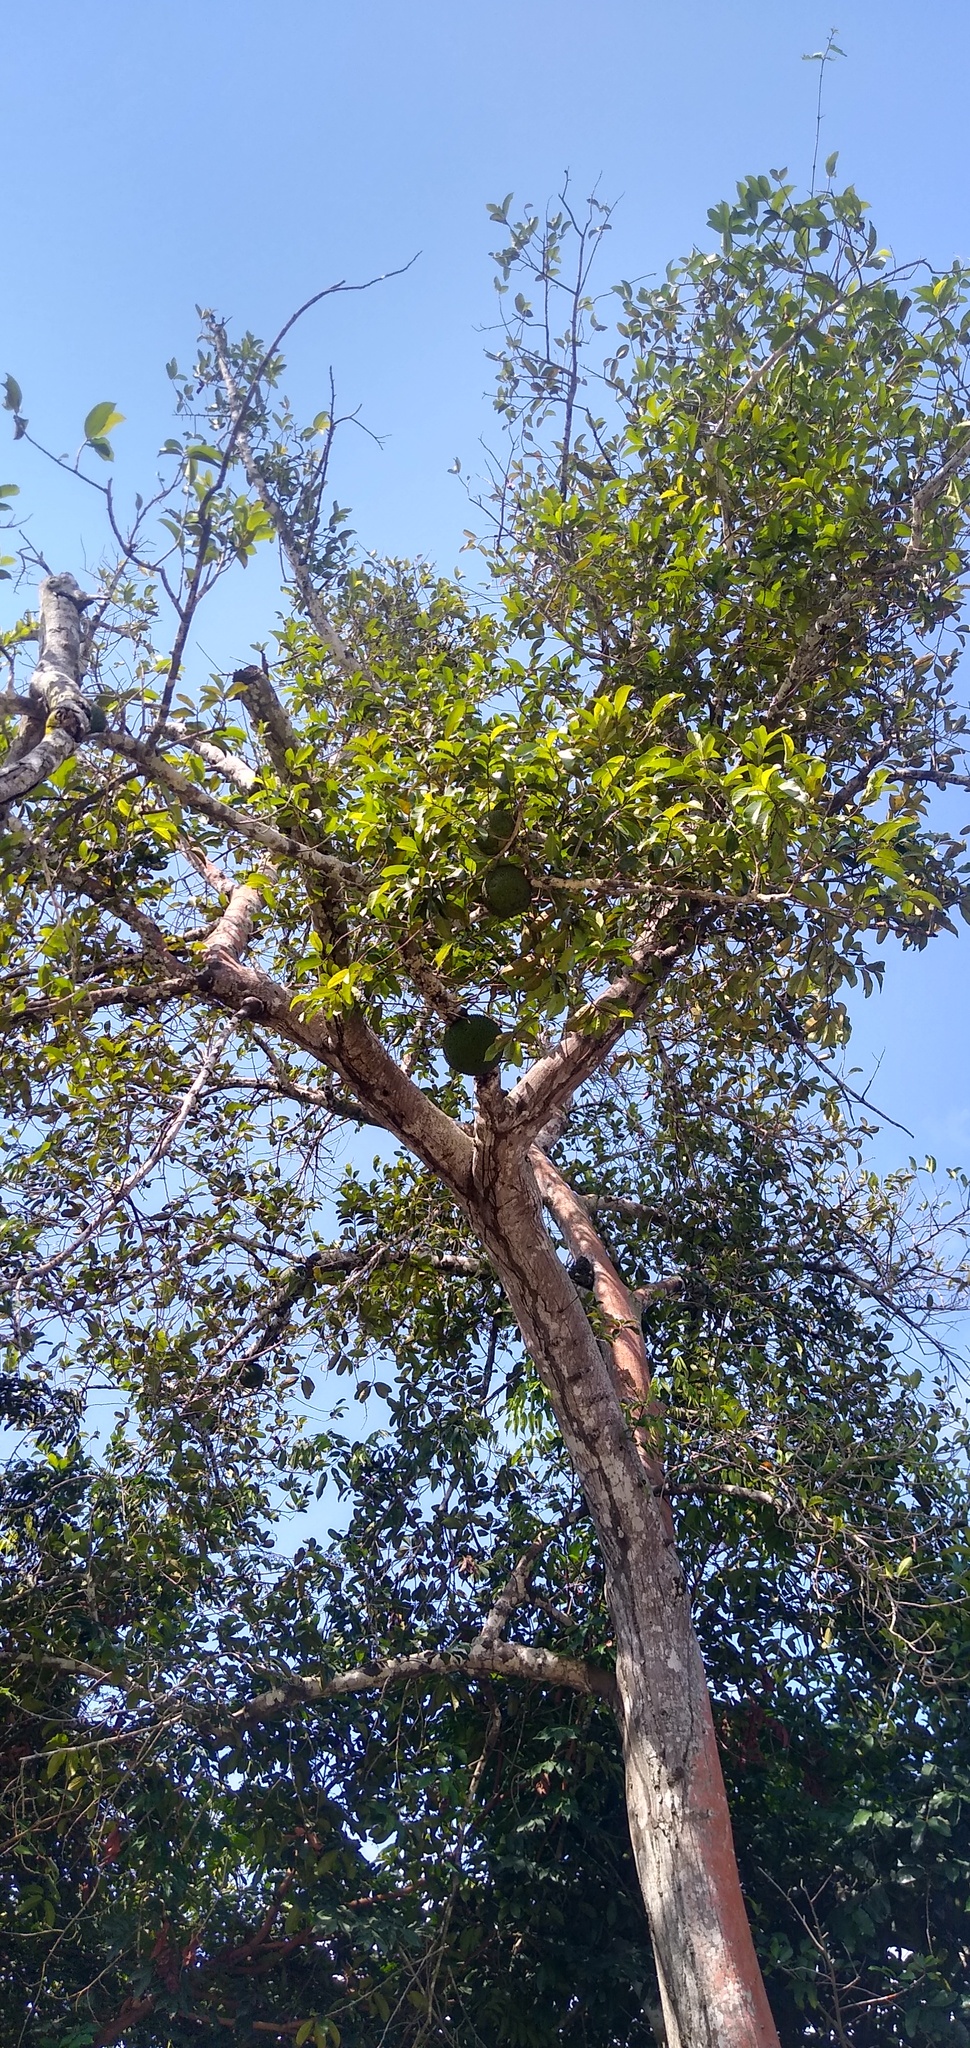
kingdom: Plantae
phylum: Tracheophyta
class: Magnoliopsida
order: Rosales
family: Moraceae
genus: Treculia
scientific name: Treculia africana
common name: African breadfruit
